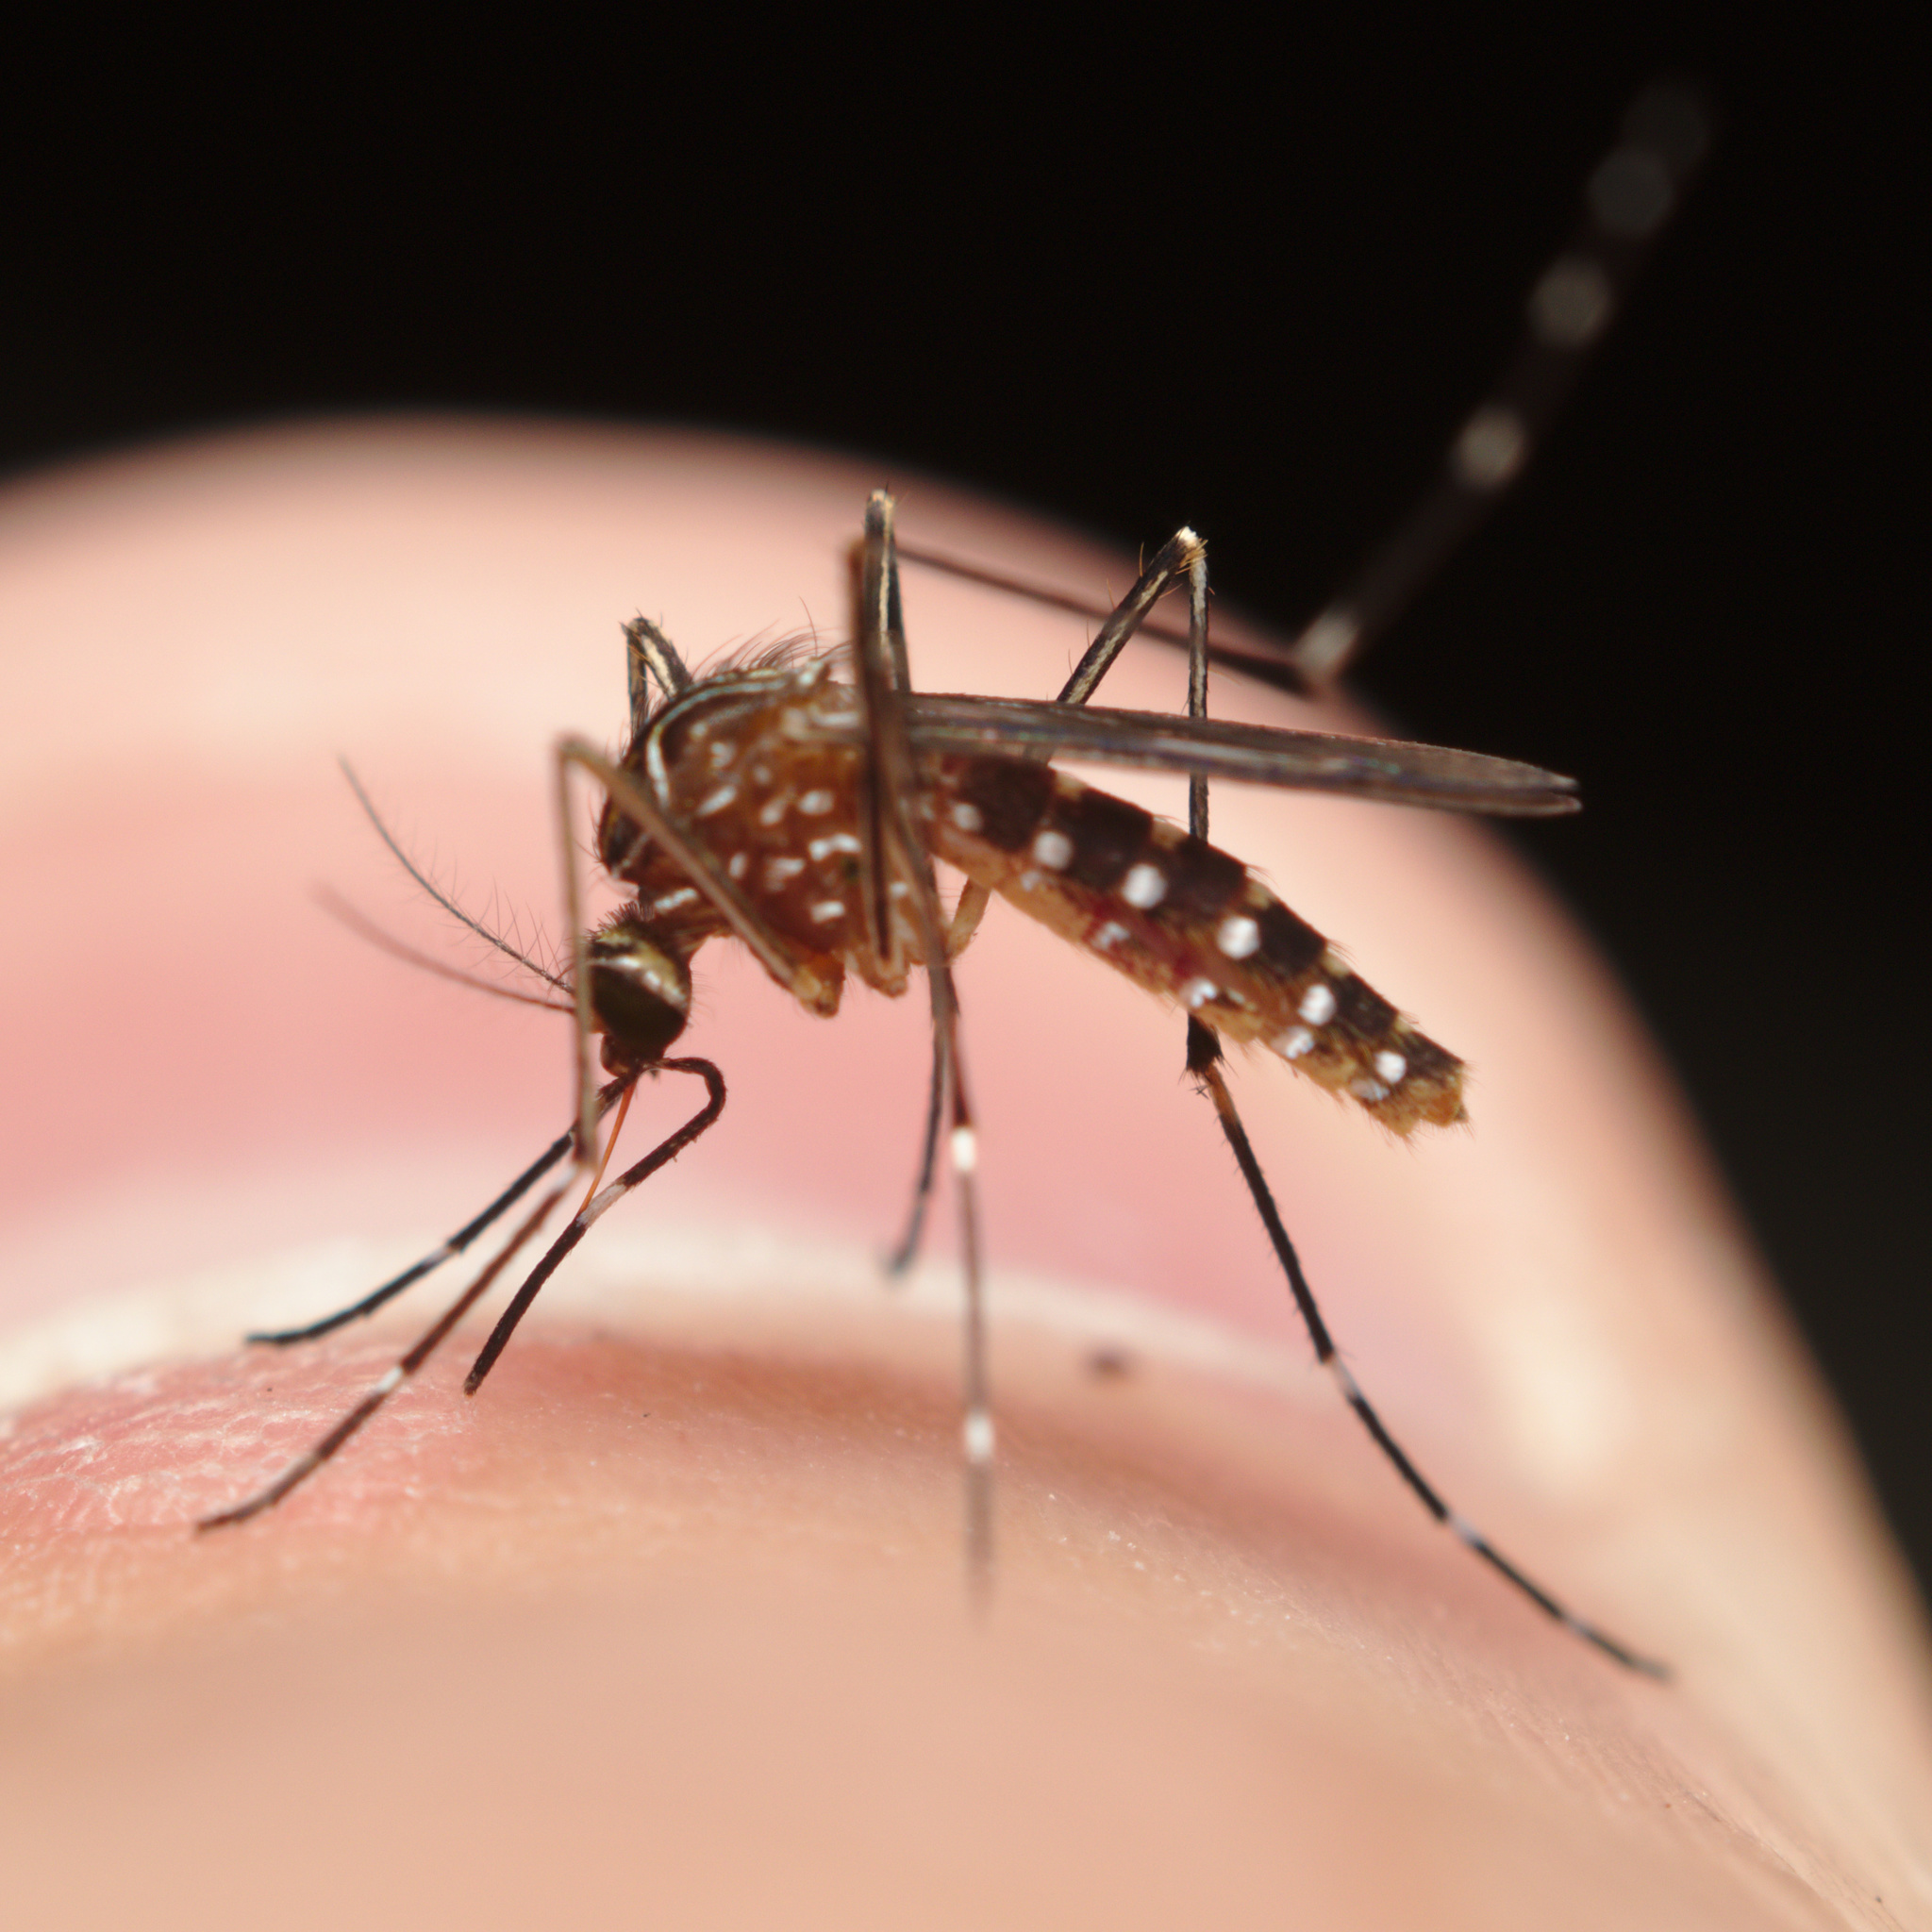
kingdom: Animalia
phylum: Arthropoda
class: Insecta
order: Diptera
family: Culicidae
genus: Aedes
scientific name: Aedes notoscriptus
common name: Australian backyard mosquito
